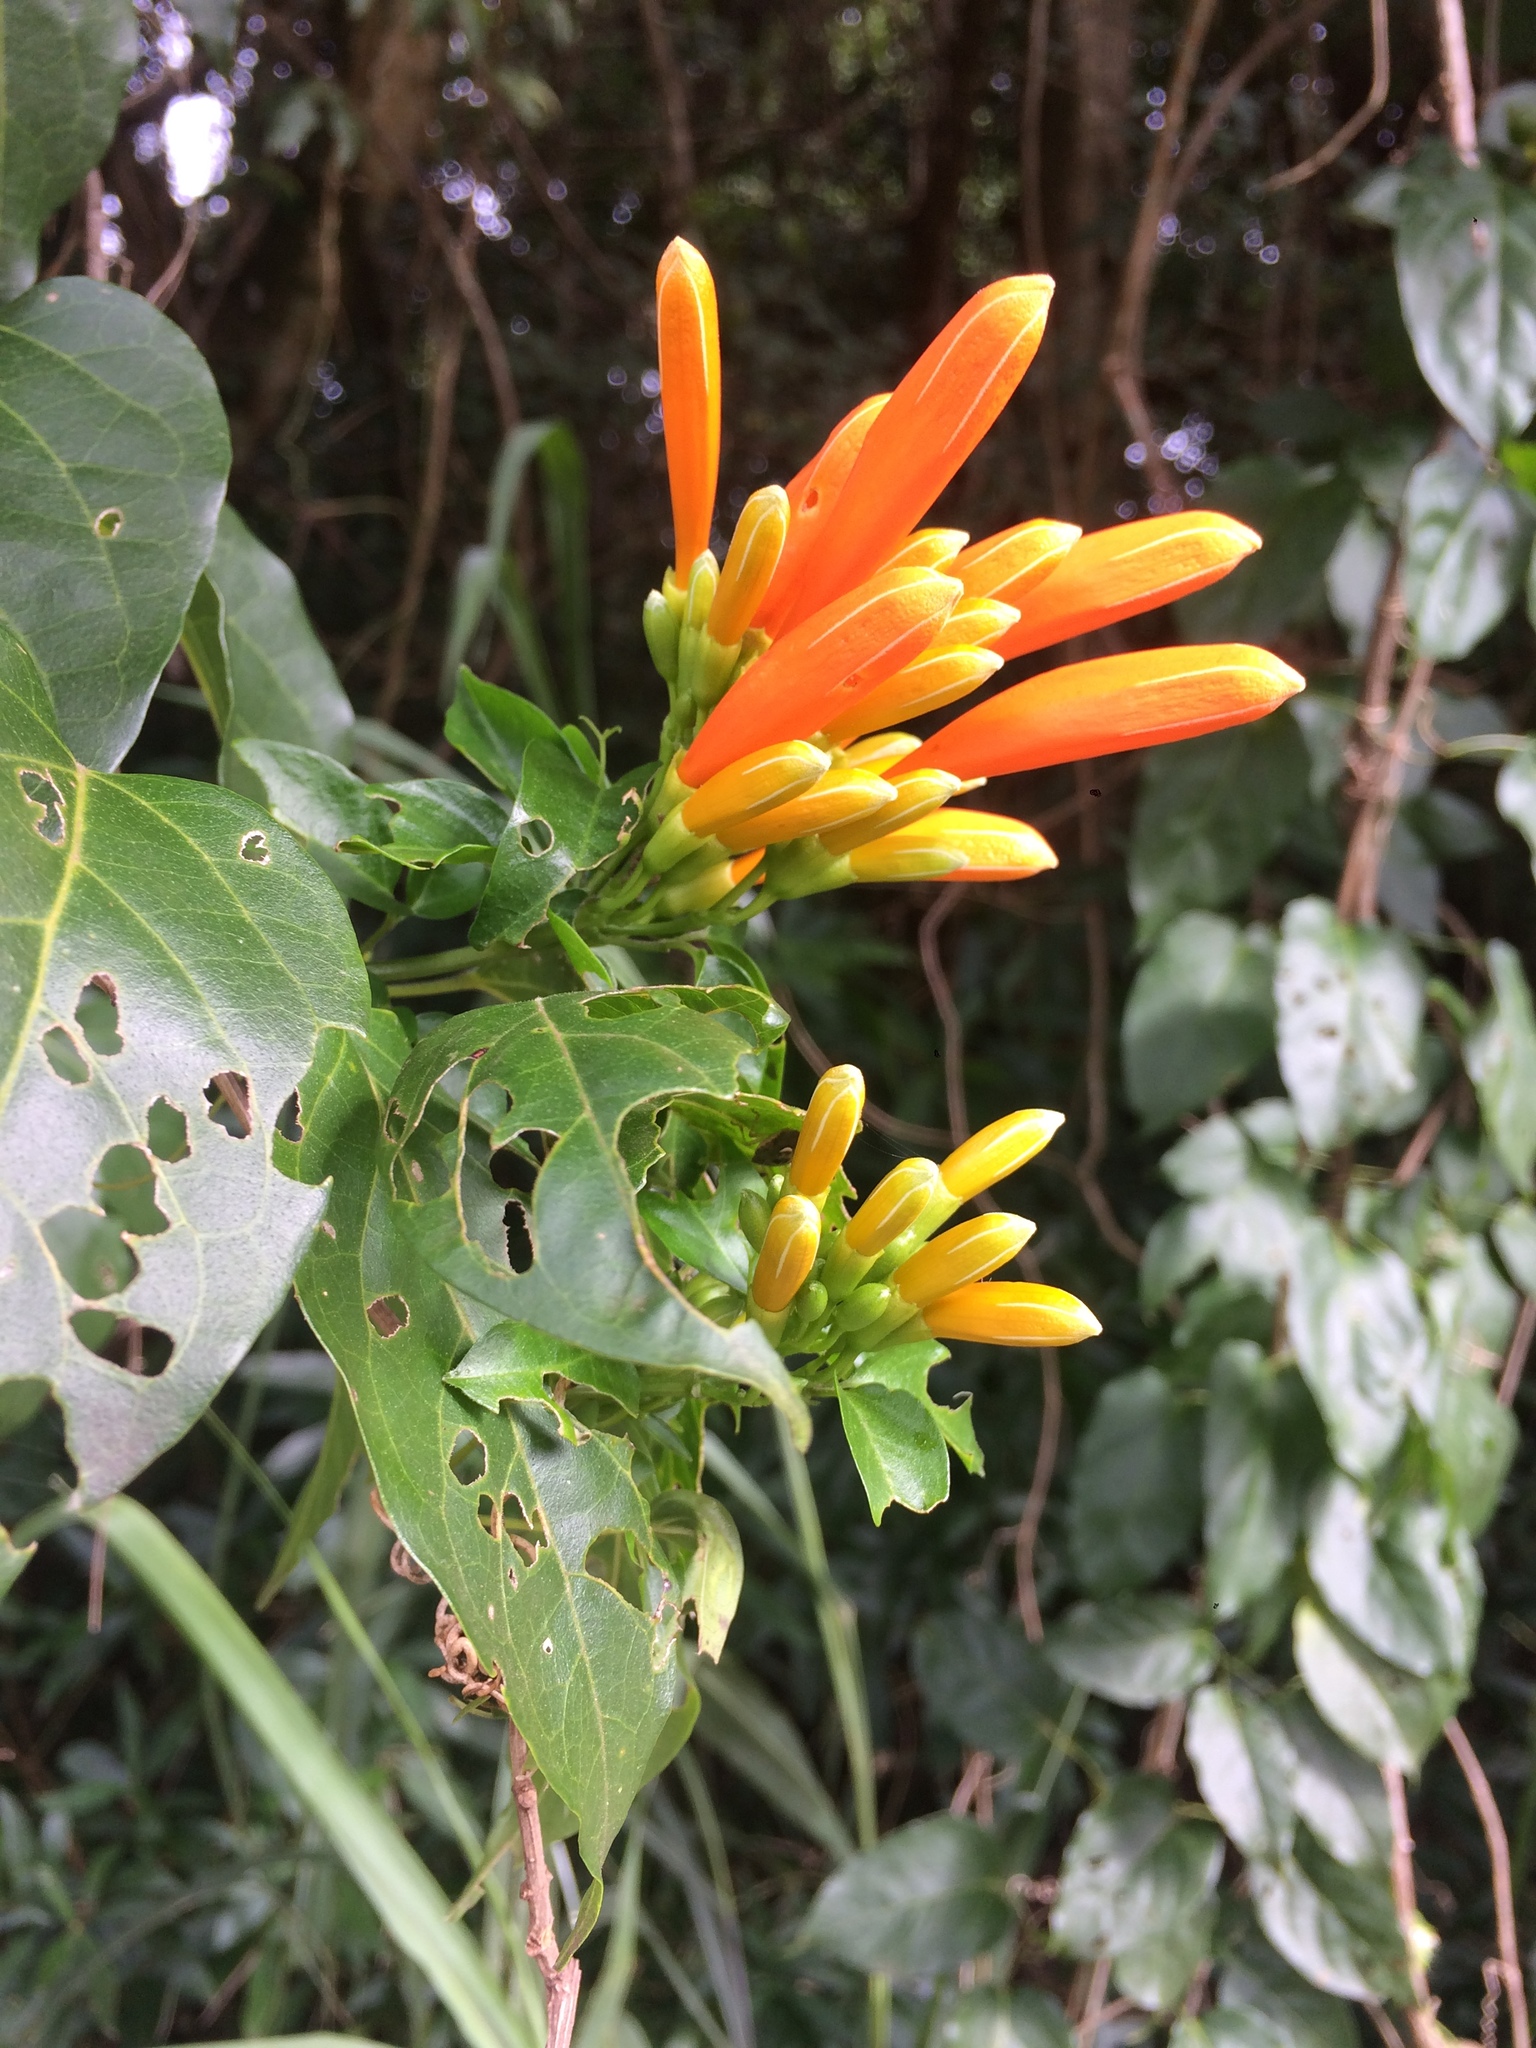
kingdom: Plantae
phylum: Tracheophyta
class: Magnoliopsida
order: Lamiales
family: Bignoniaceae
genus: Pyrostegia
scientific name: Pyrostegia venusta
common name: Flamevine
